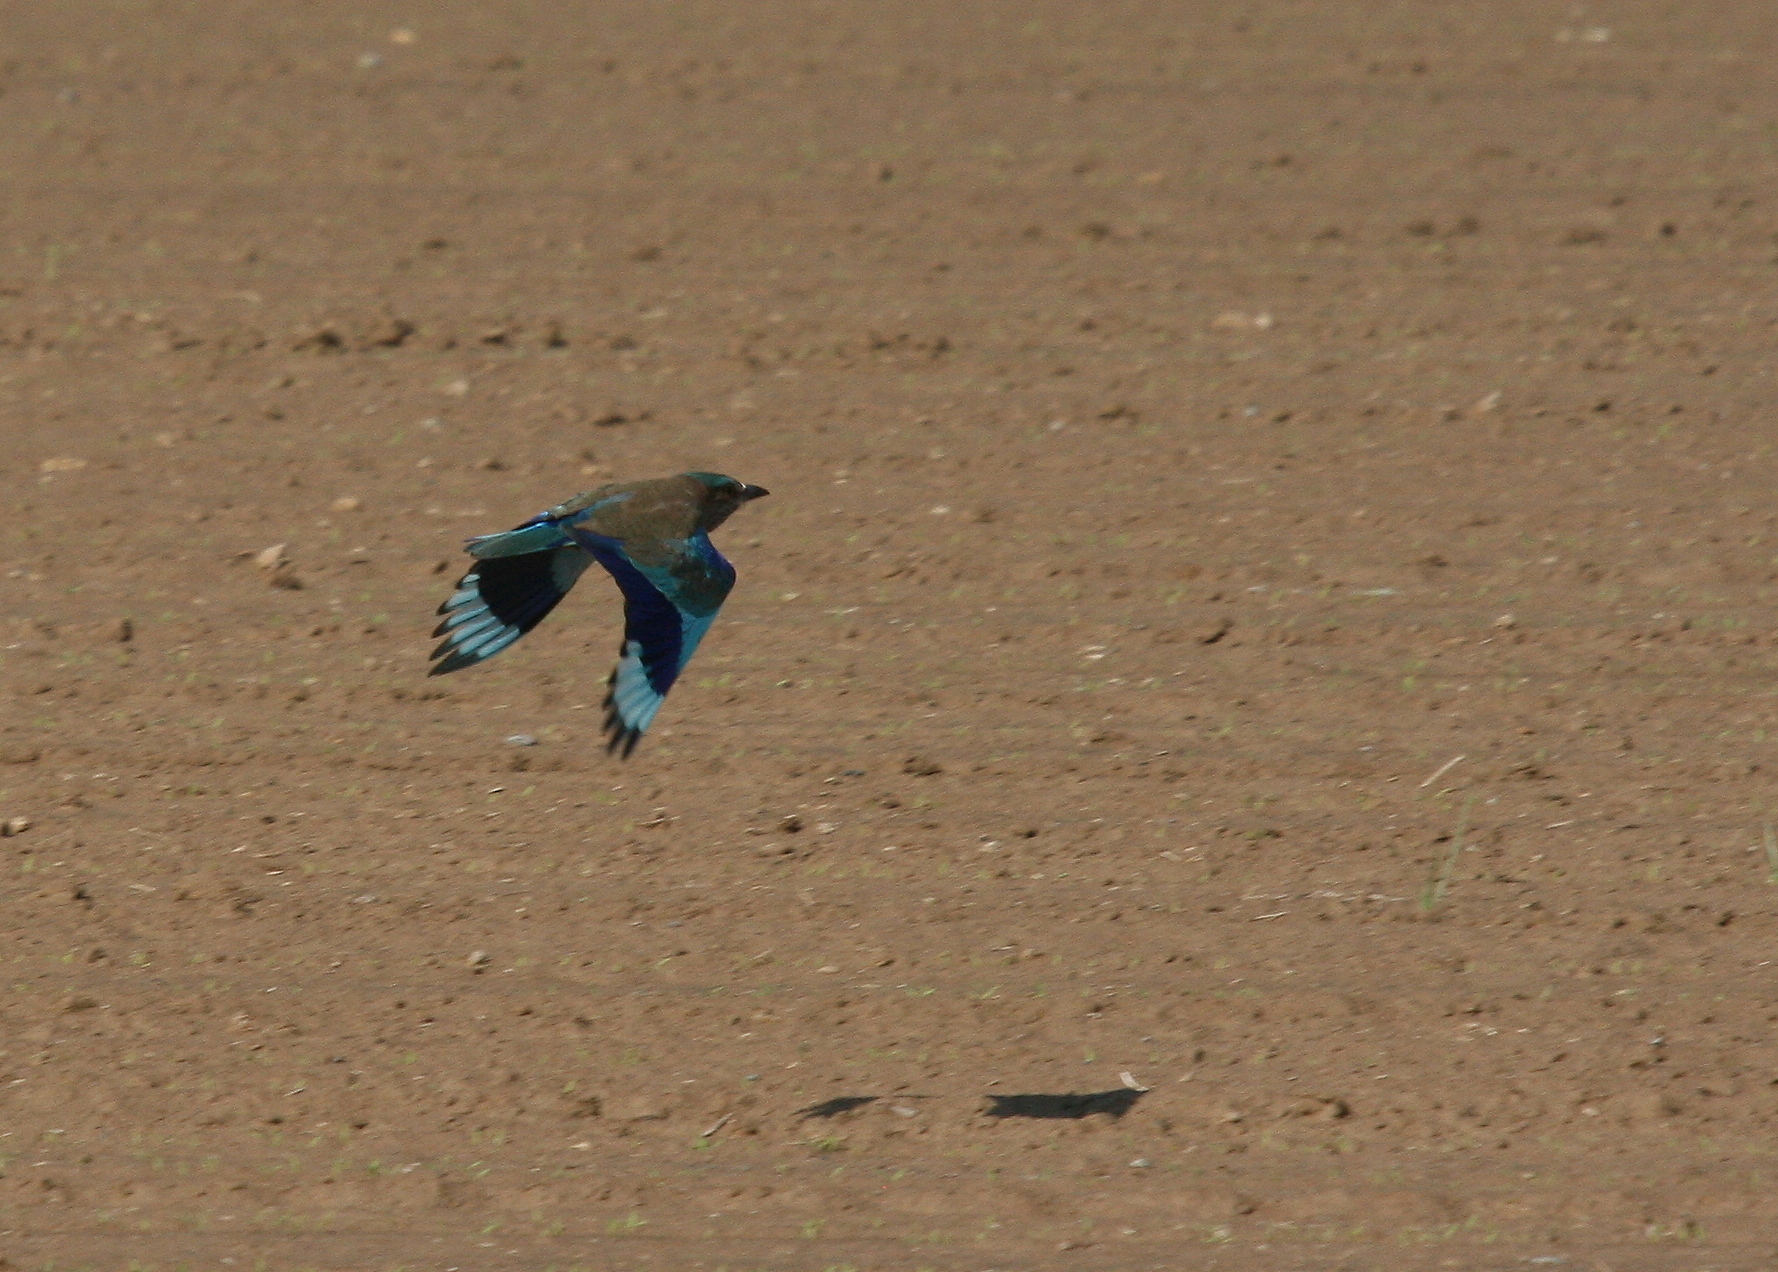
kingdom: Animalia
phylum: Chordata
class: Aves
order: Coraciiformes
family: Coraciidae
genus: Coracias
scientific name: Coracias benghalensis
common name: Indian roller
